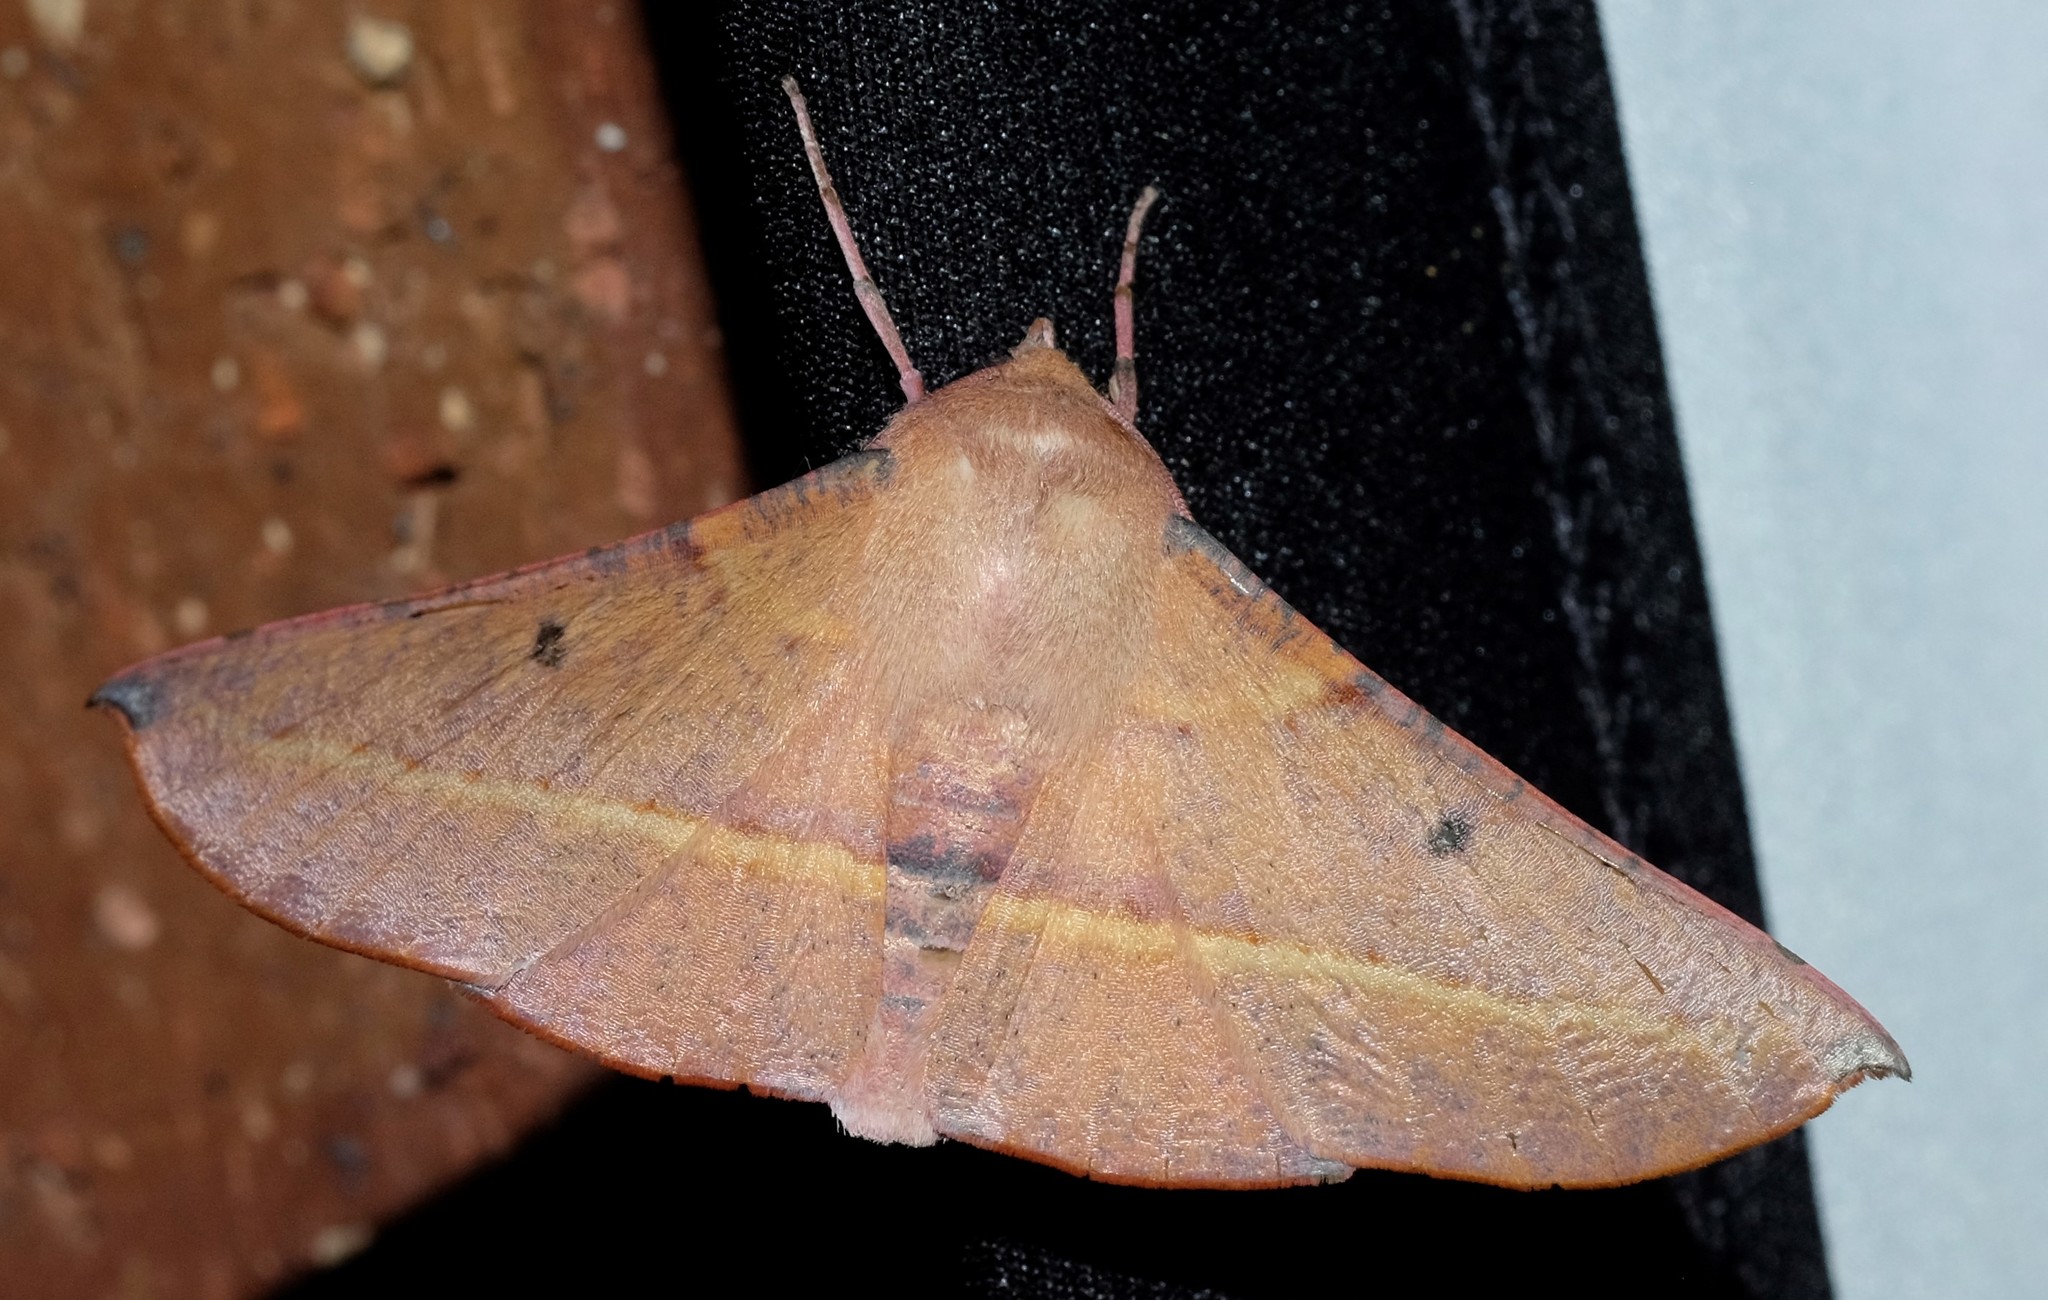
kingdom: Animalia
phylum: Arthropoda
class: Insecta
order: Lepidoptera
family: Geometridae
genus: Oenochroma
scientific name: Oenochroma vinaria
